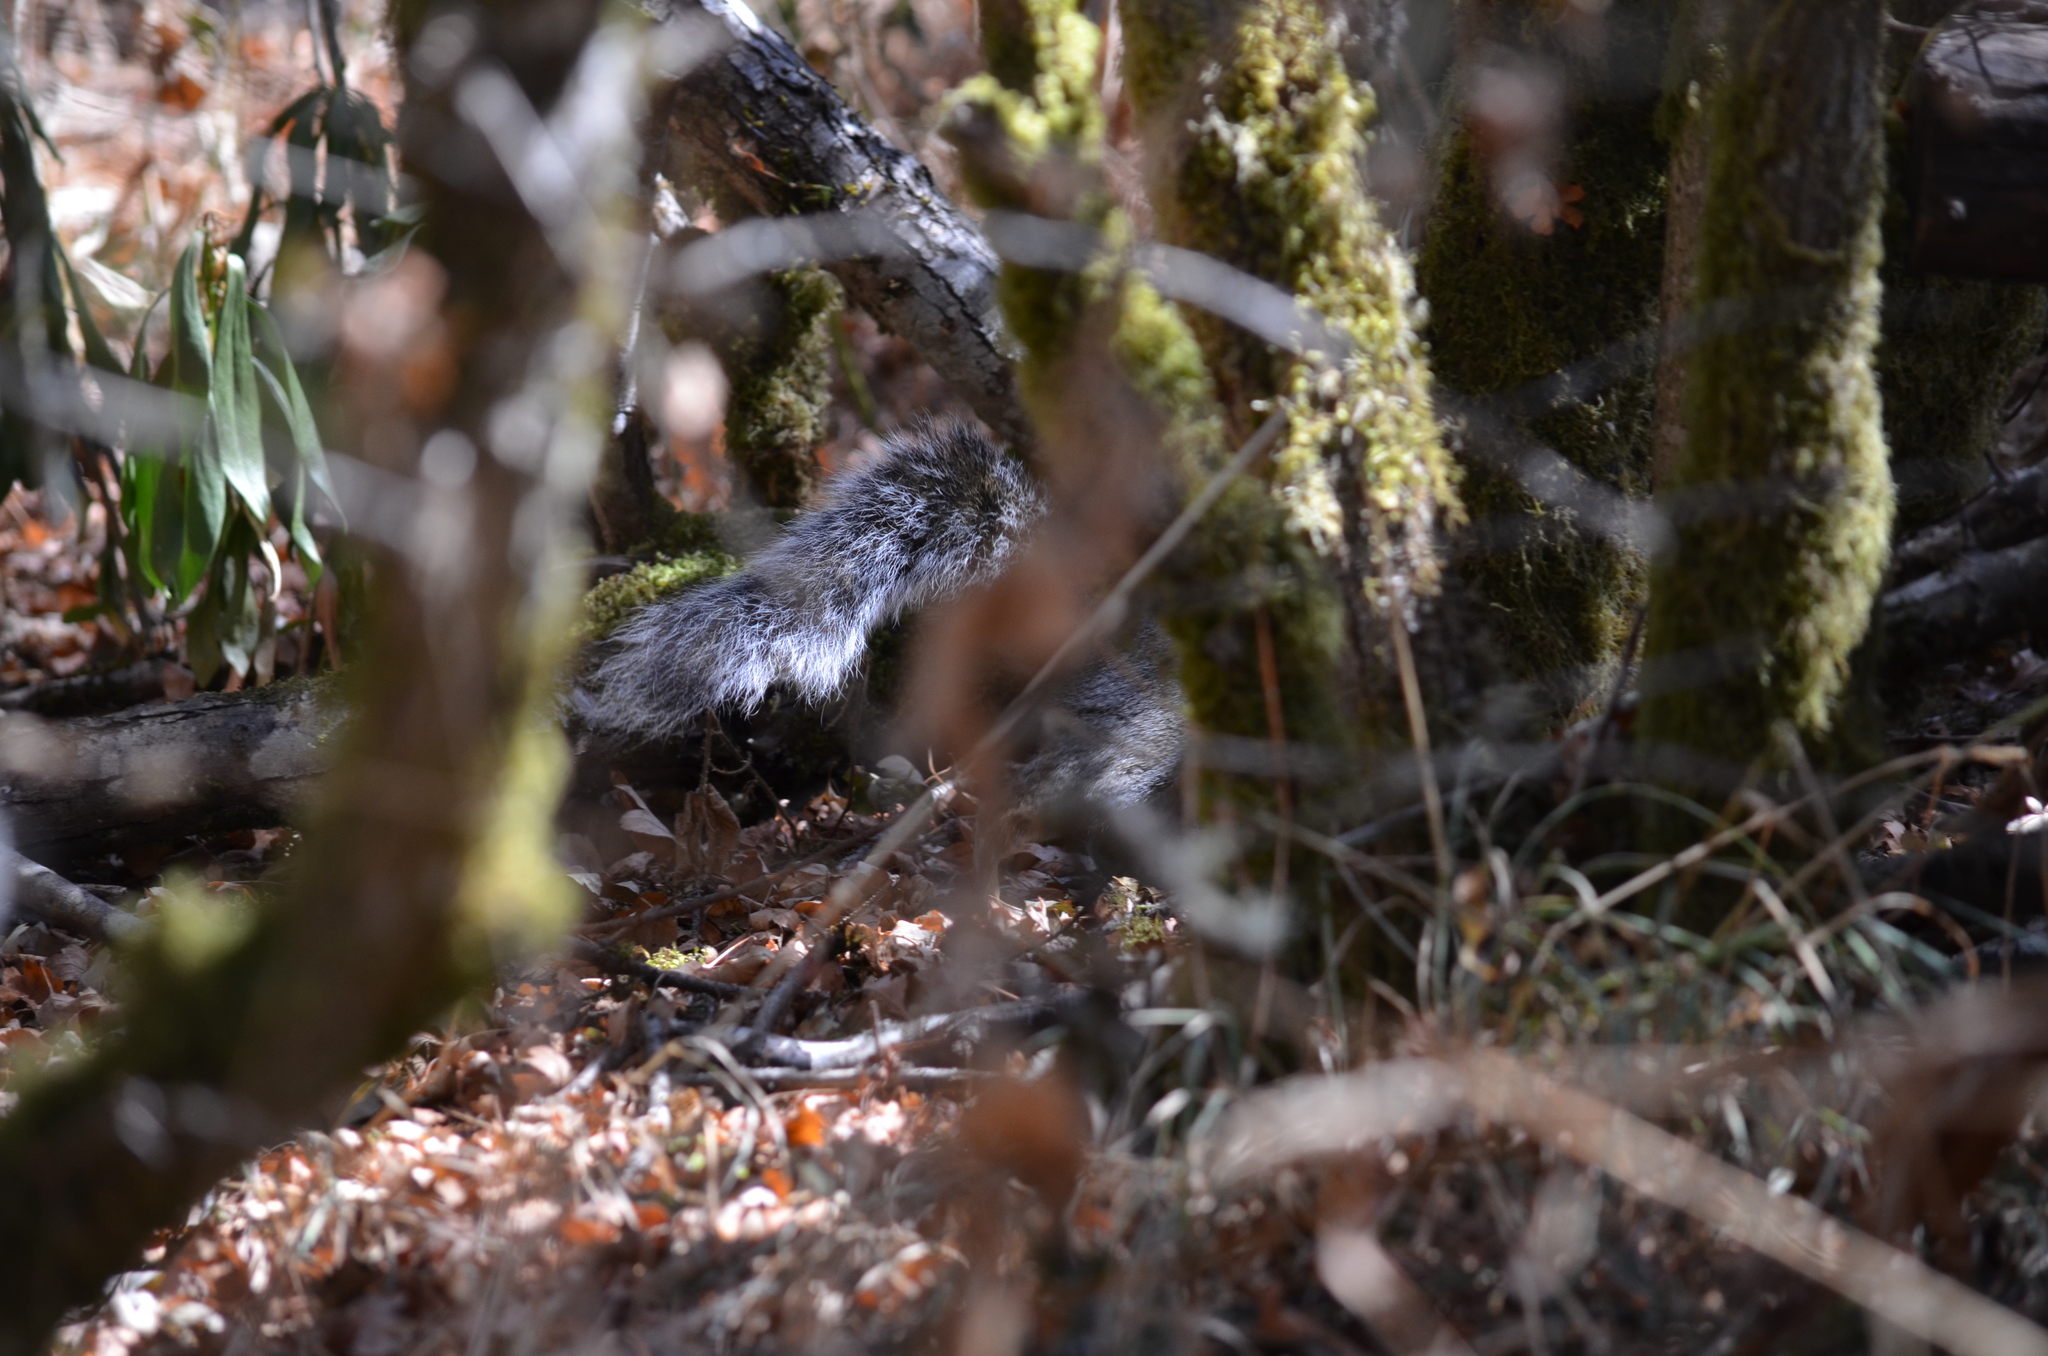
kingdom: Animalia
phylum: Chordata
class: Mammalia
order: Rodentia
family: Sciuridae
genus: Sciurus
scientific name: Sciurus carolinensis
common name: Eastern gray squirrel
